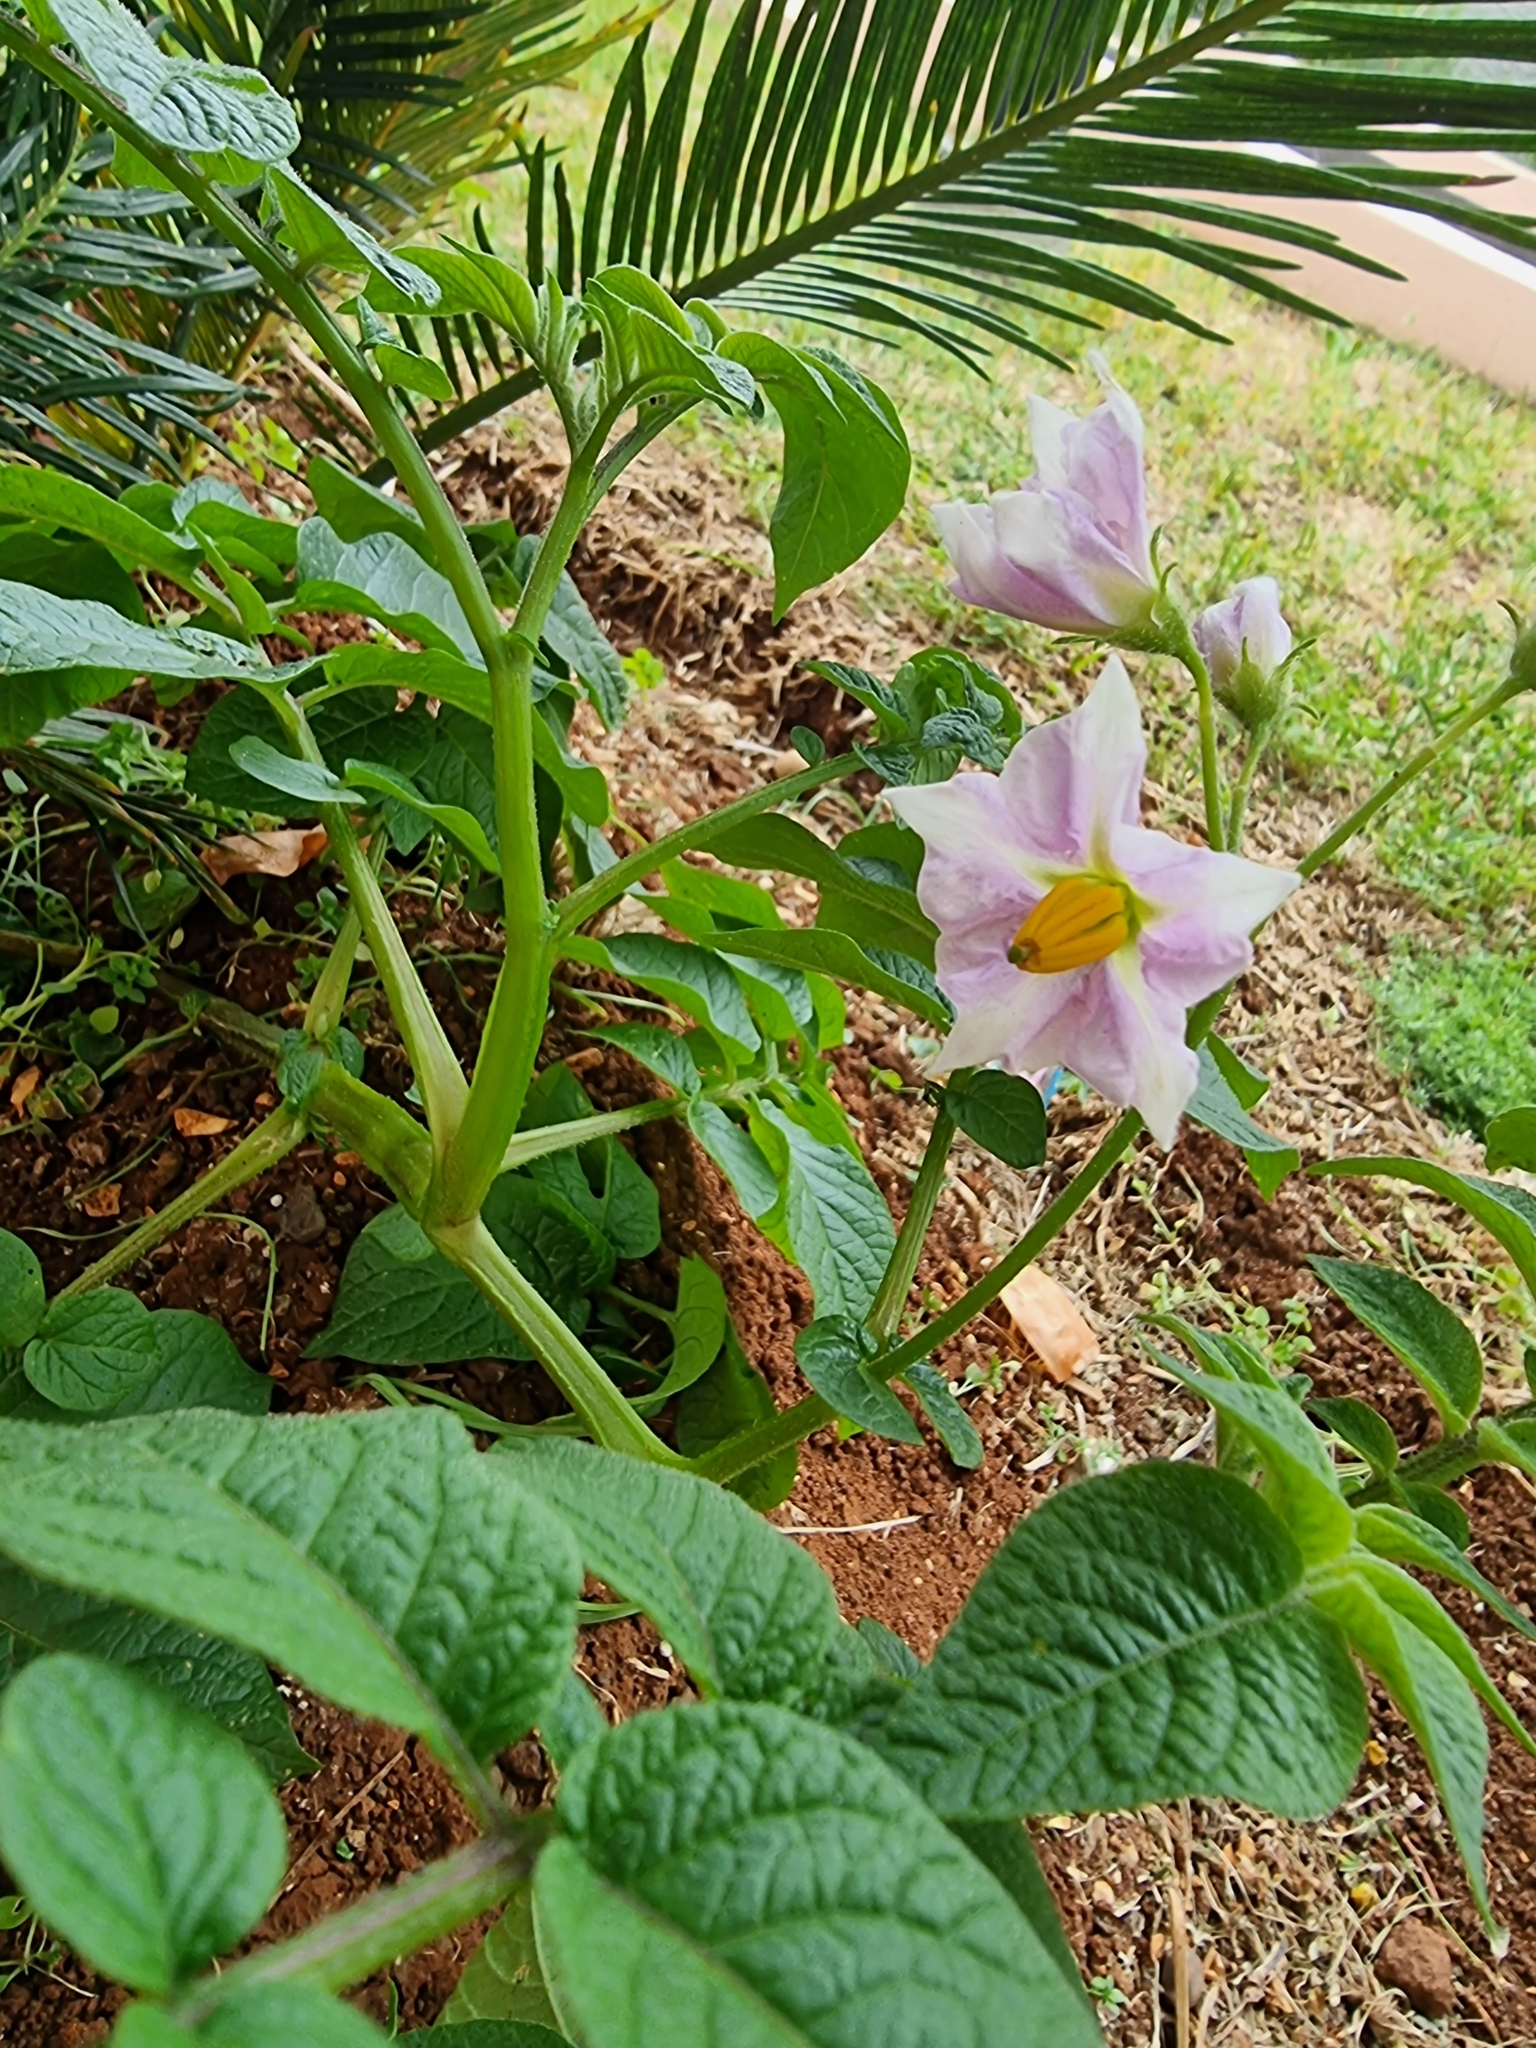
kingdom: Plantae
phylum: Tracheophyta
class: Magnoliopsida
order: Solanales
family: Solanaceae
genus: Solanum
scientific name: Solanum tuberosum
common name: Potato
